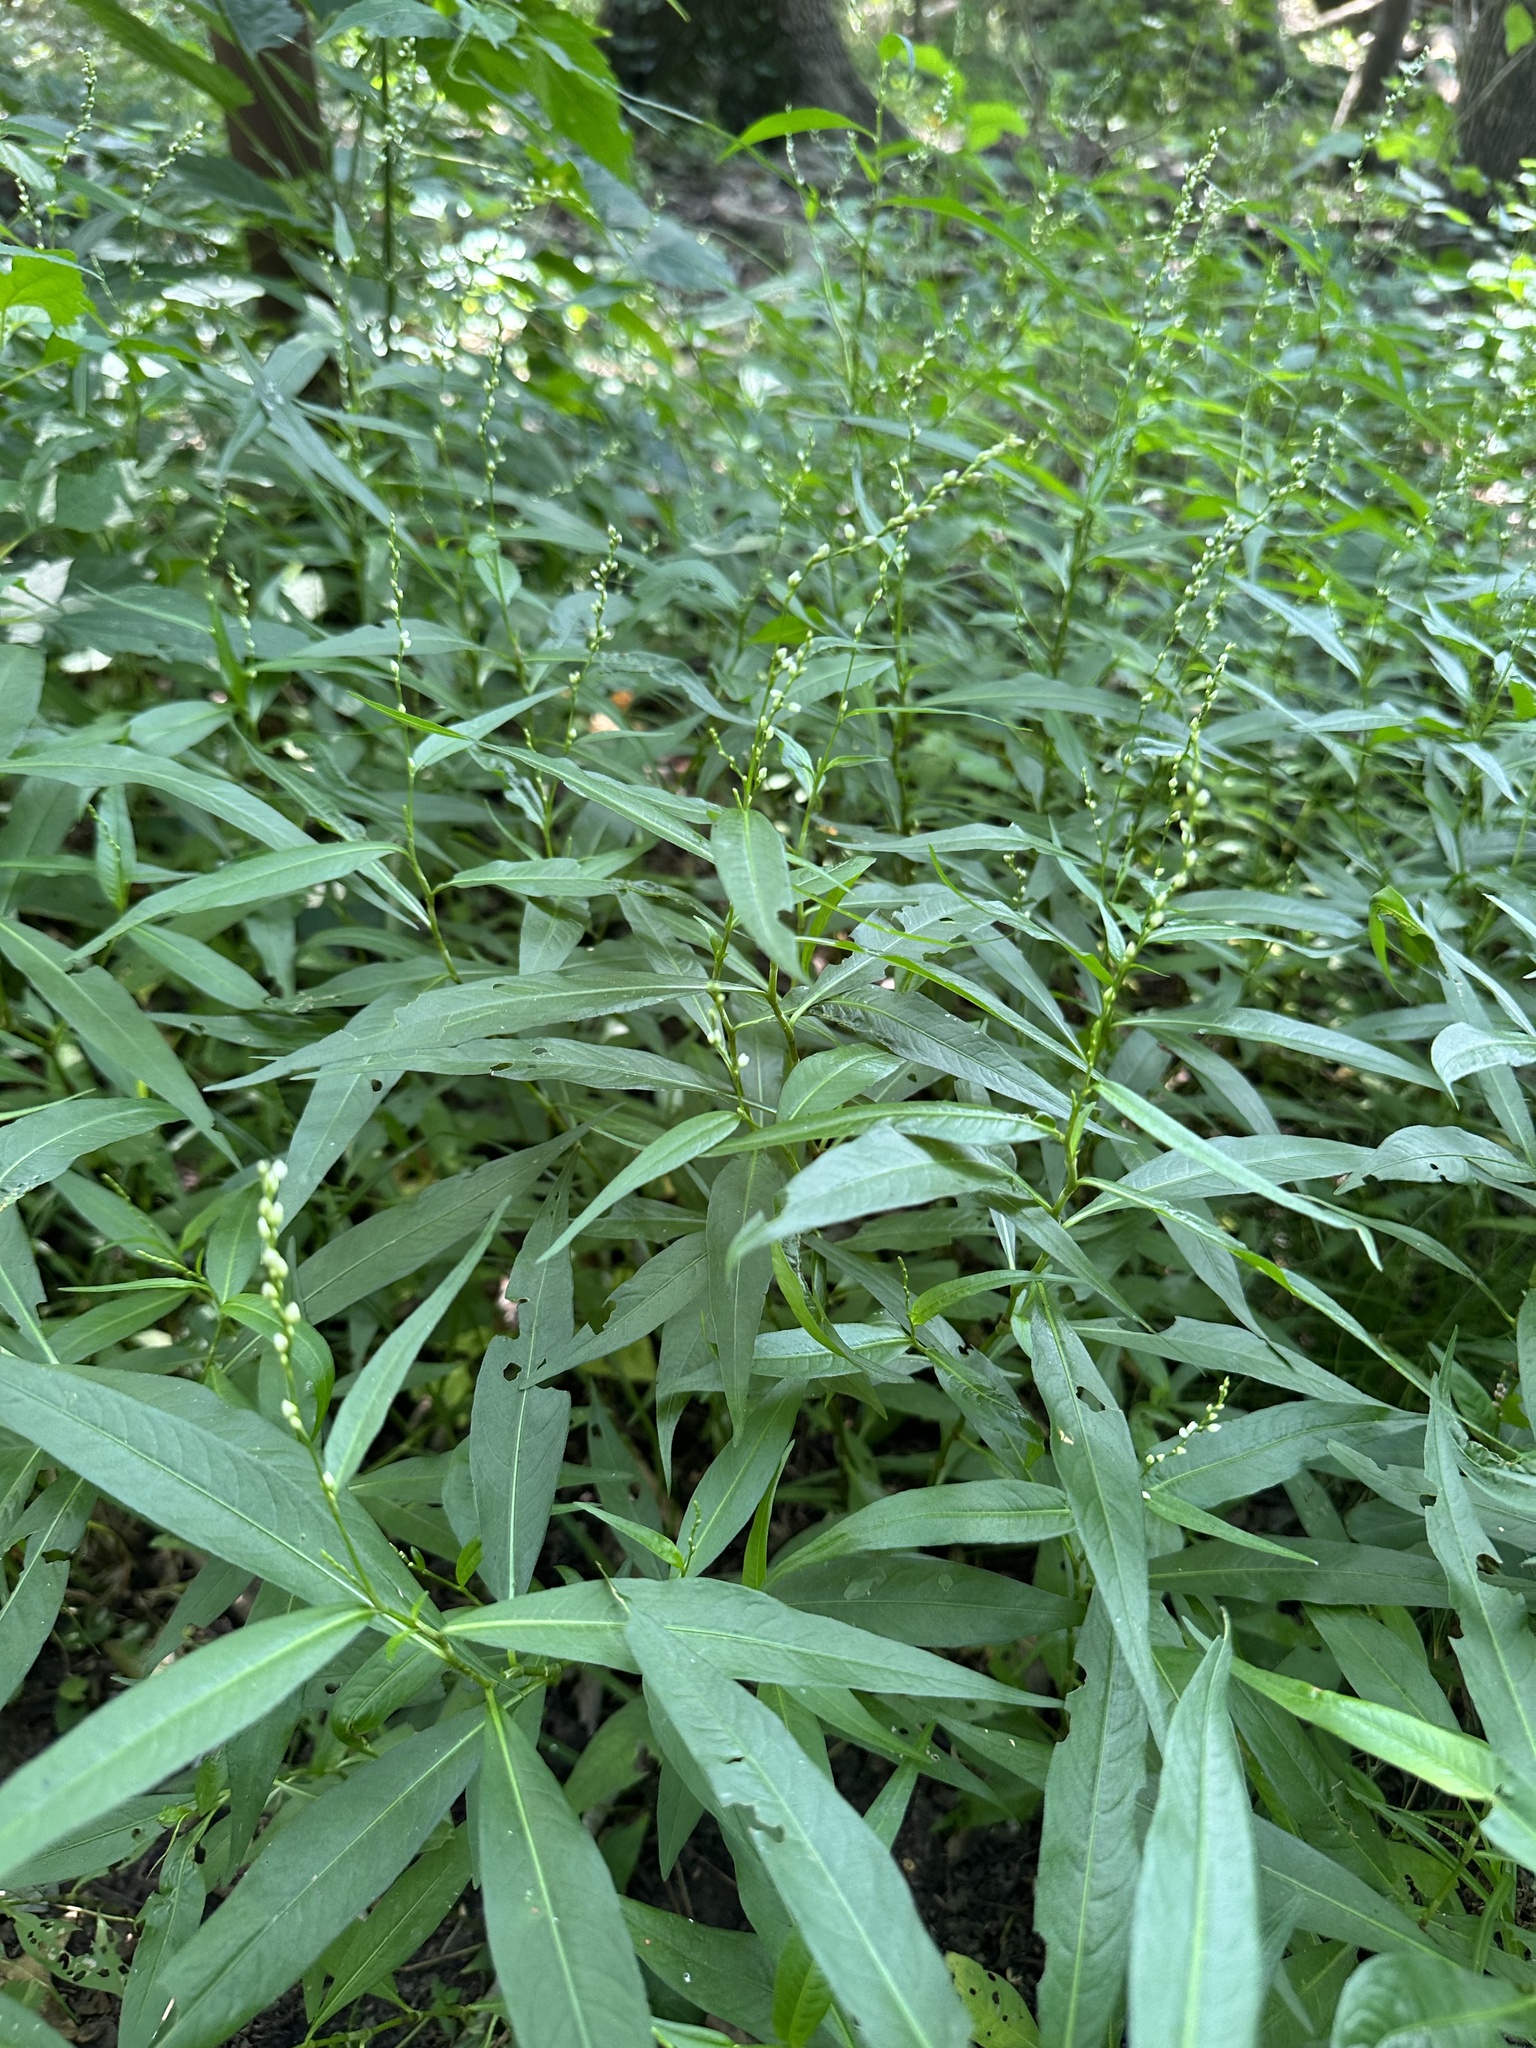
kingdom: Plantae
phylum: Tracheophyta
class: Magnoliopsida
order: Caryophyllales
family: Polygonaceae
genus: Persicaria
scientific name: Persicaria punctata
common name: Dotted smartweed
